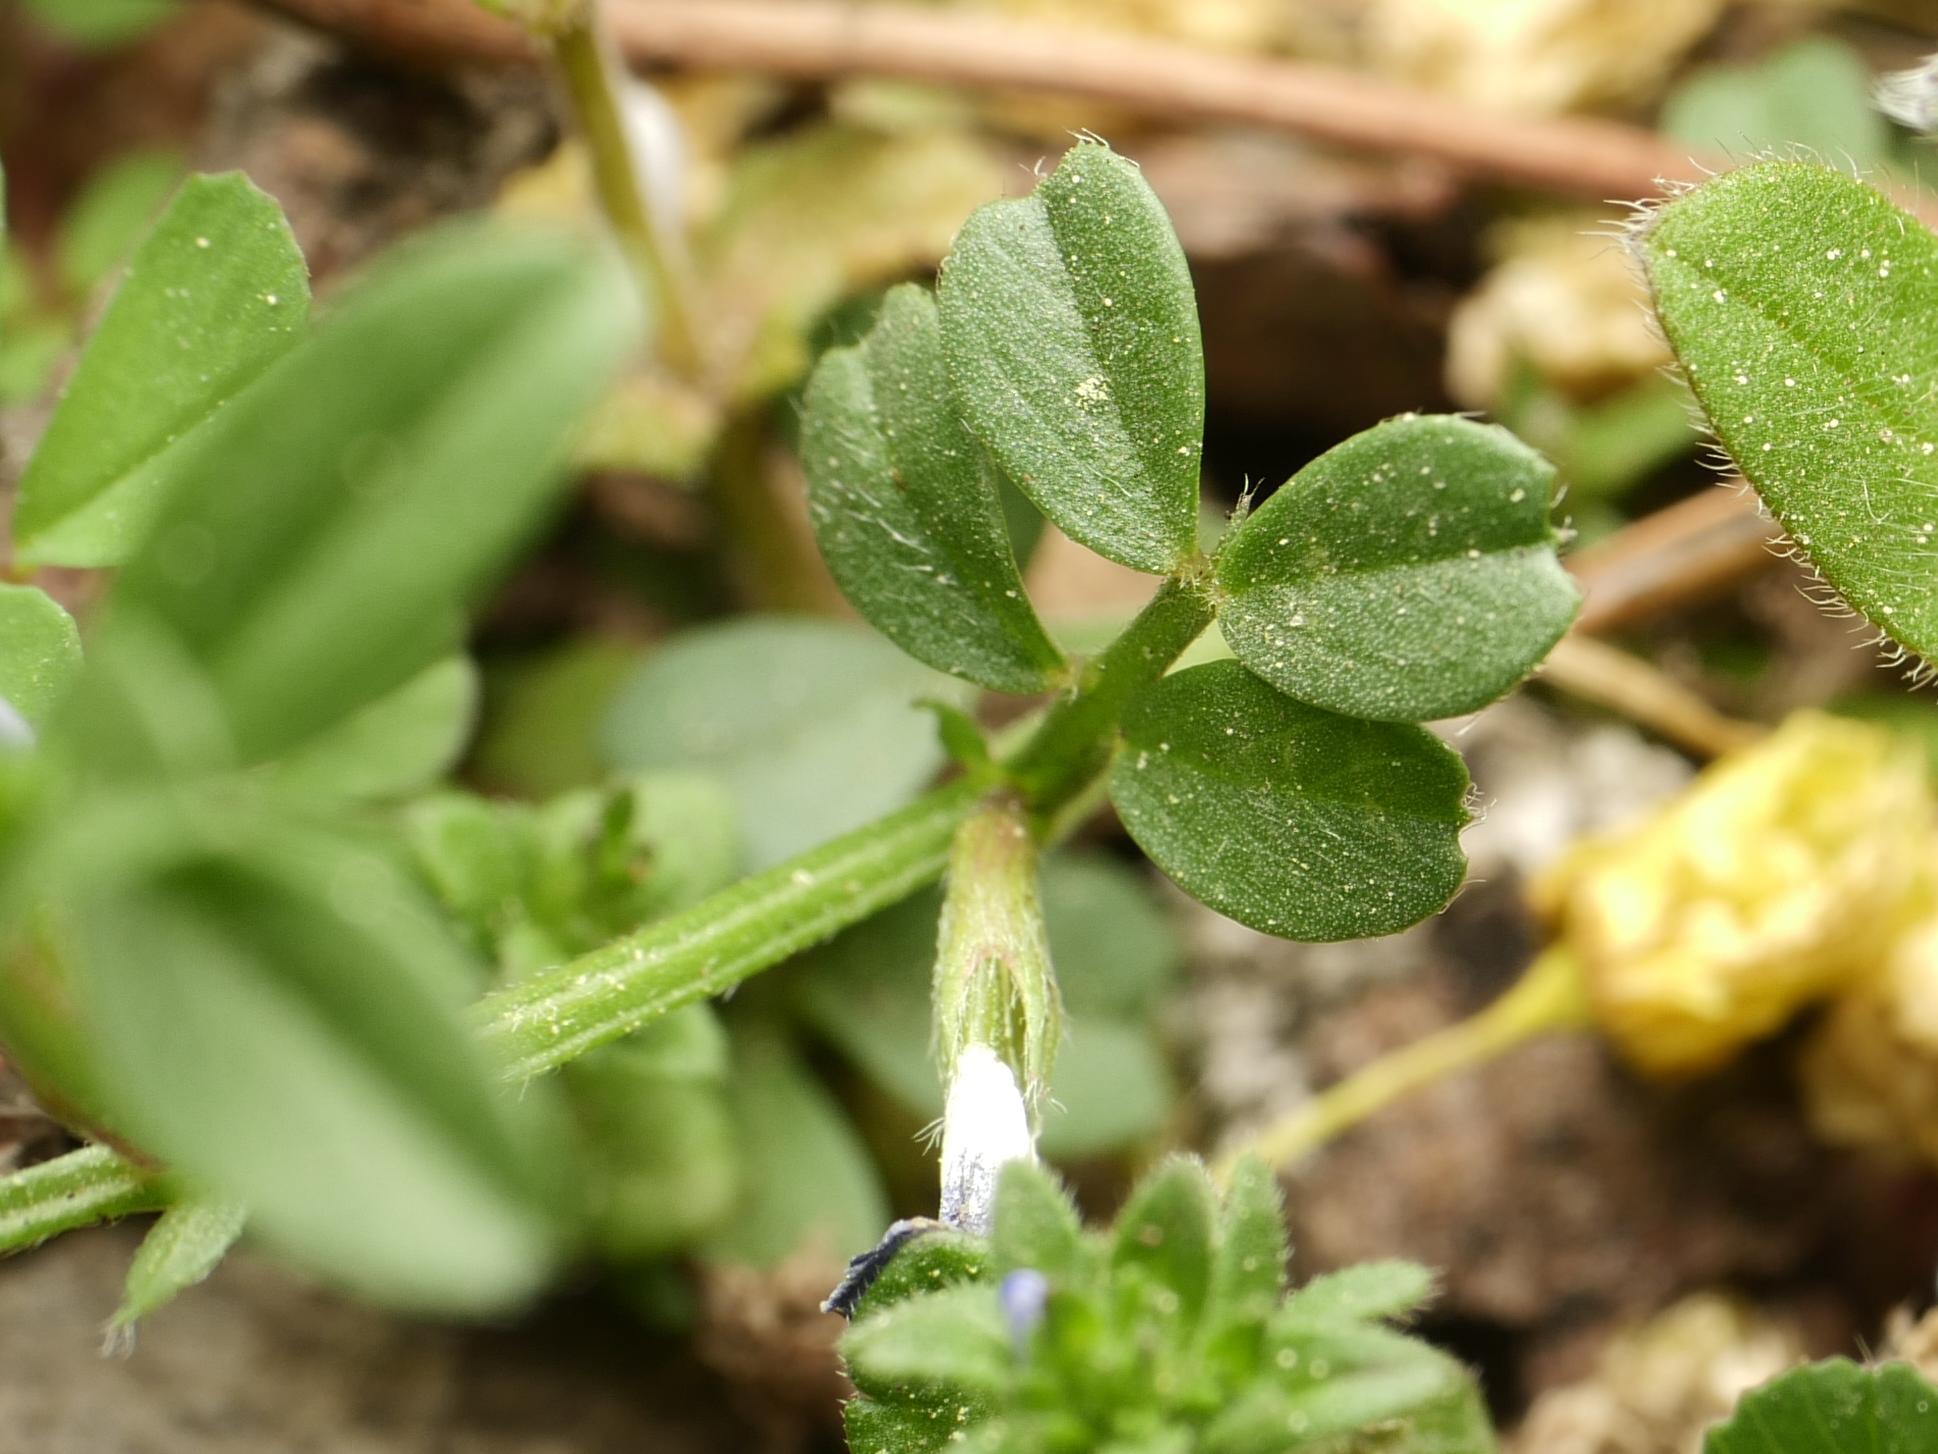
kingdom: Plantae
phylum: Tracheophyta
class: Magnoliopsida
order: Fabales
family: Fabaceae
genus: Vicia
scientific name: Vicia lathyroides
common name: Spring vetch
